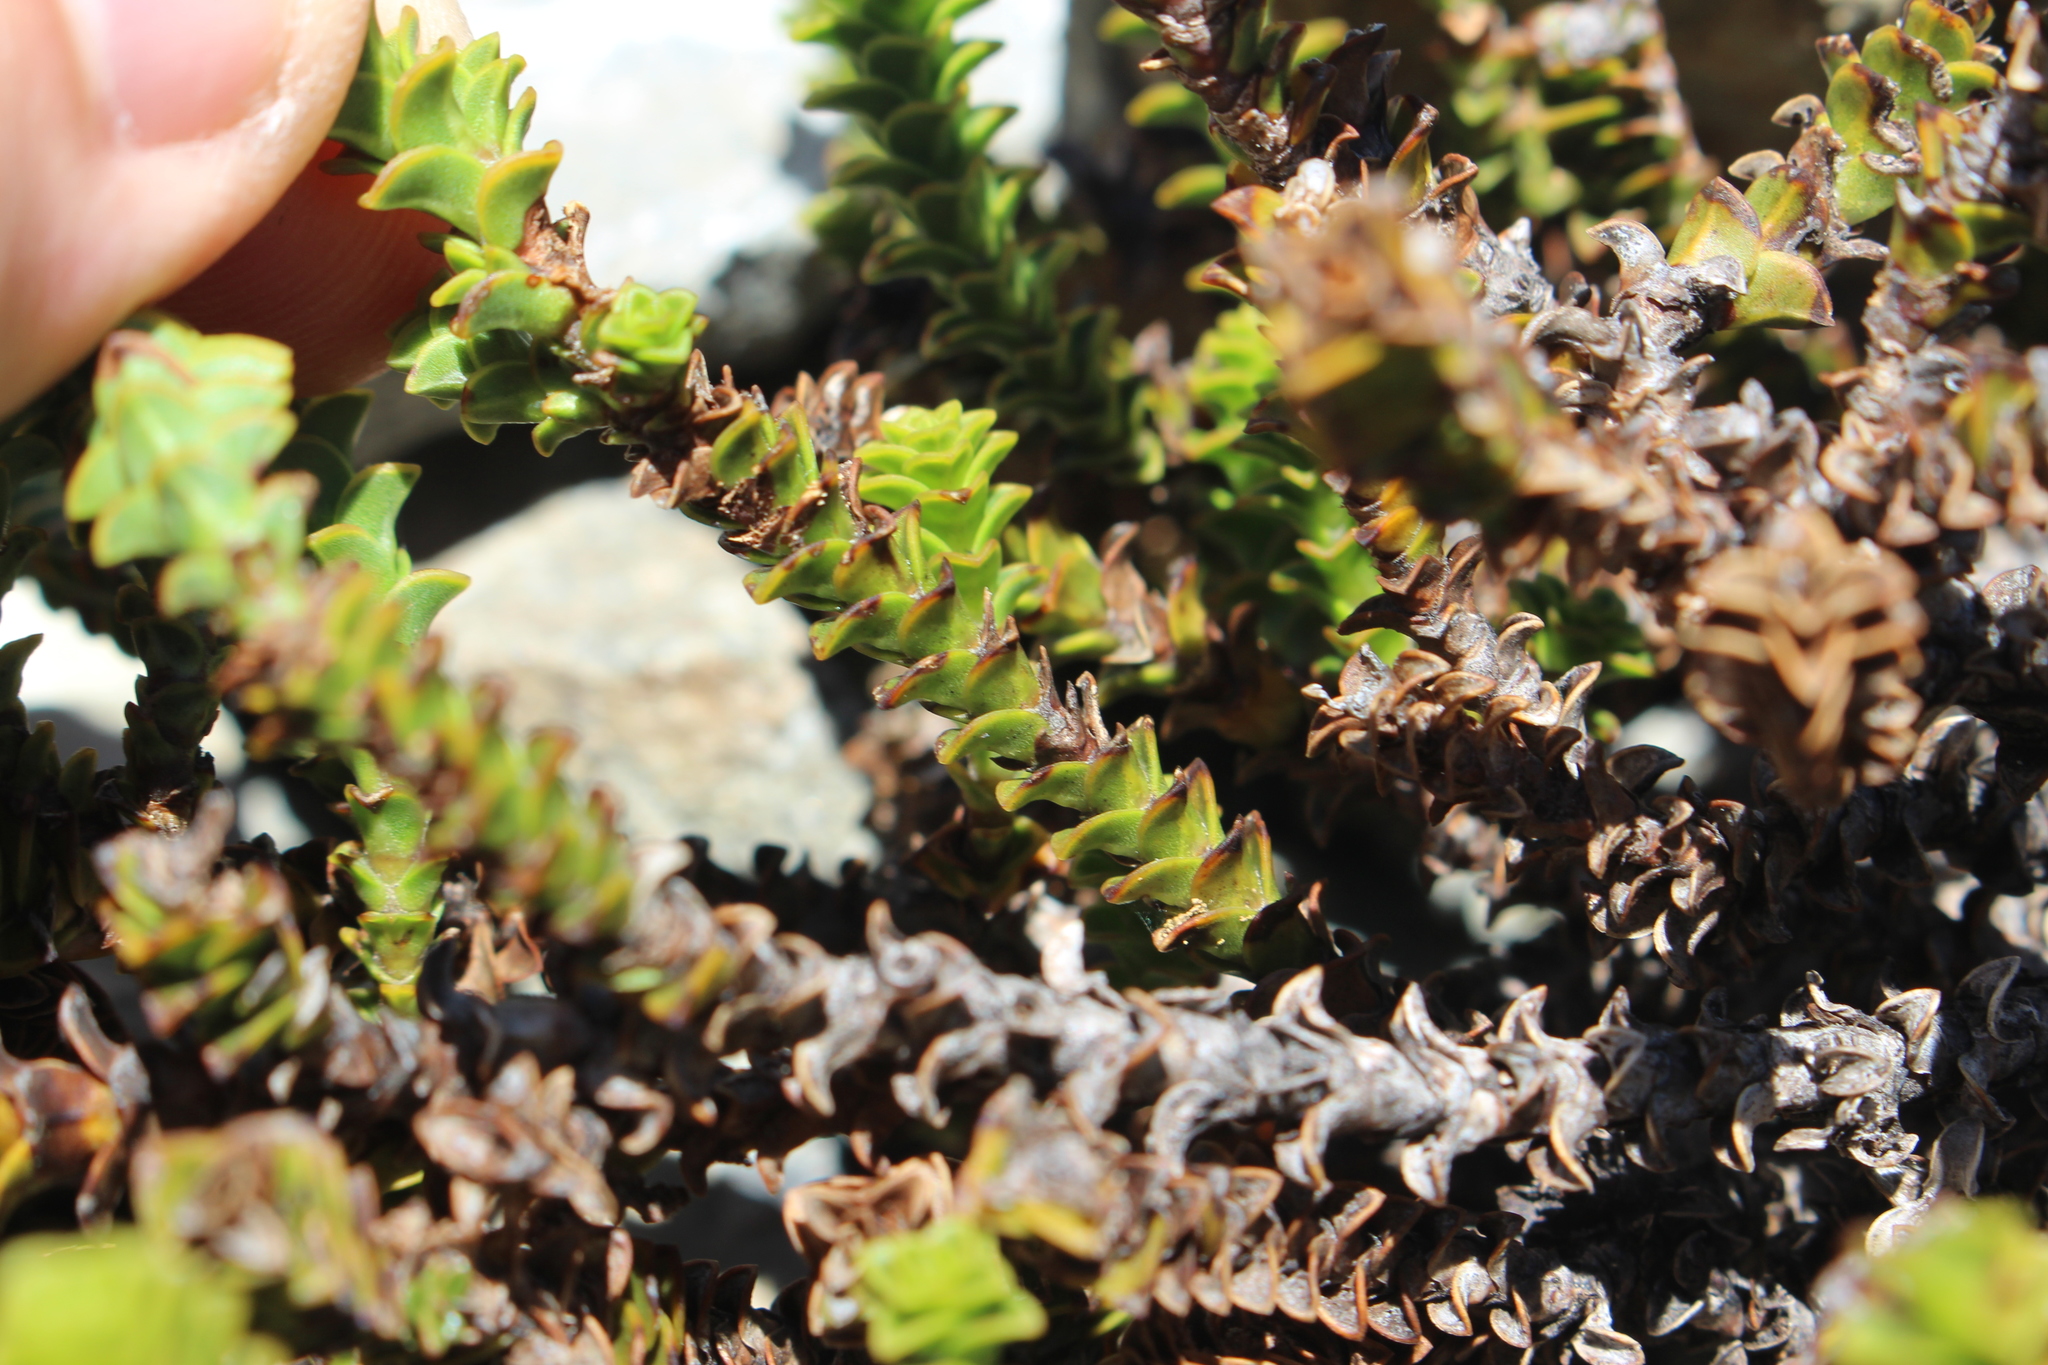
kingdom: Plantae
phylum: Tracheophyta
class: Magnoliopsida
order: Lamiales
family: Plantaginaceae
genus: Veronica
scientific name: Veronica epacridea
